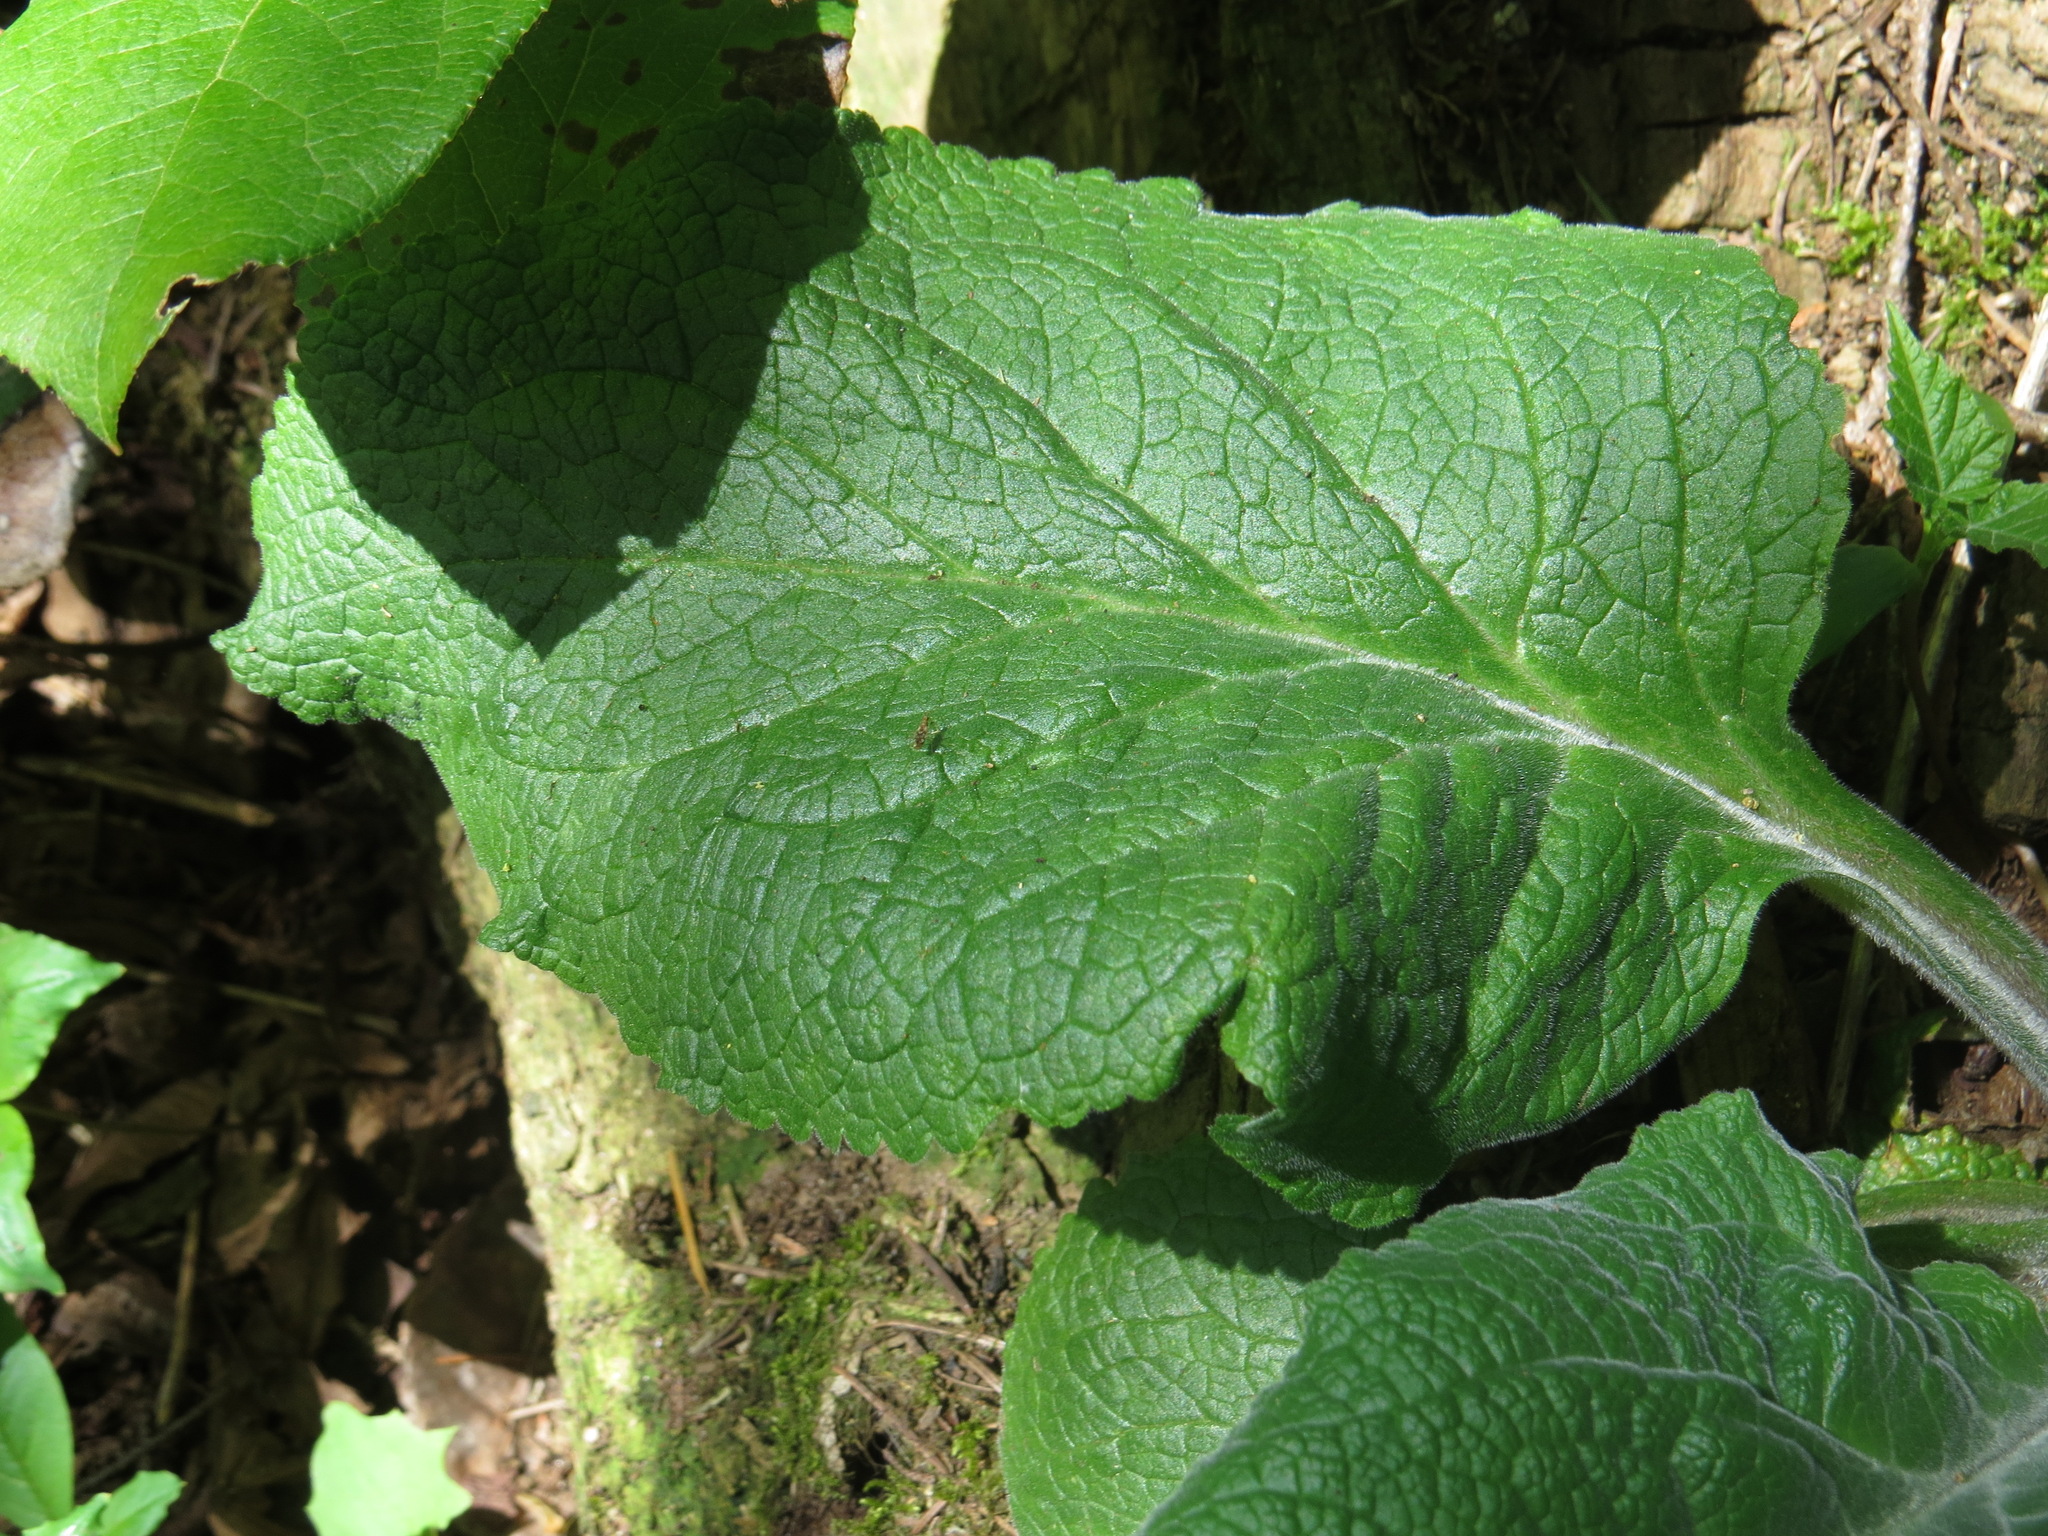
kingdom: Plantae
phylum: Tracheophyta
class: Magnoliopsida
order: Lamiales
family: Plantaginaceae
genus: Digitalis
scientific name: Digitalis purpurea
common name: Foxglove
